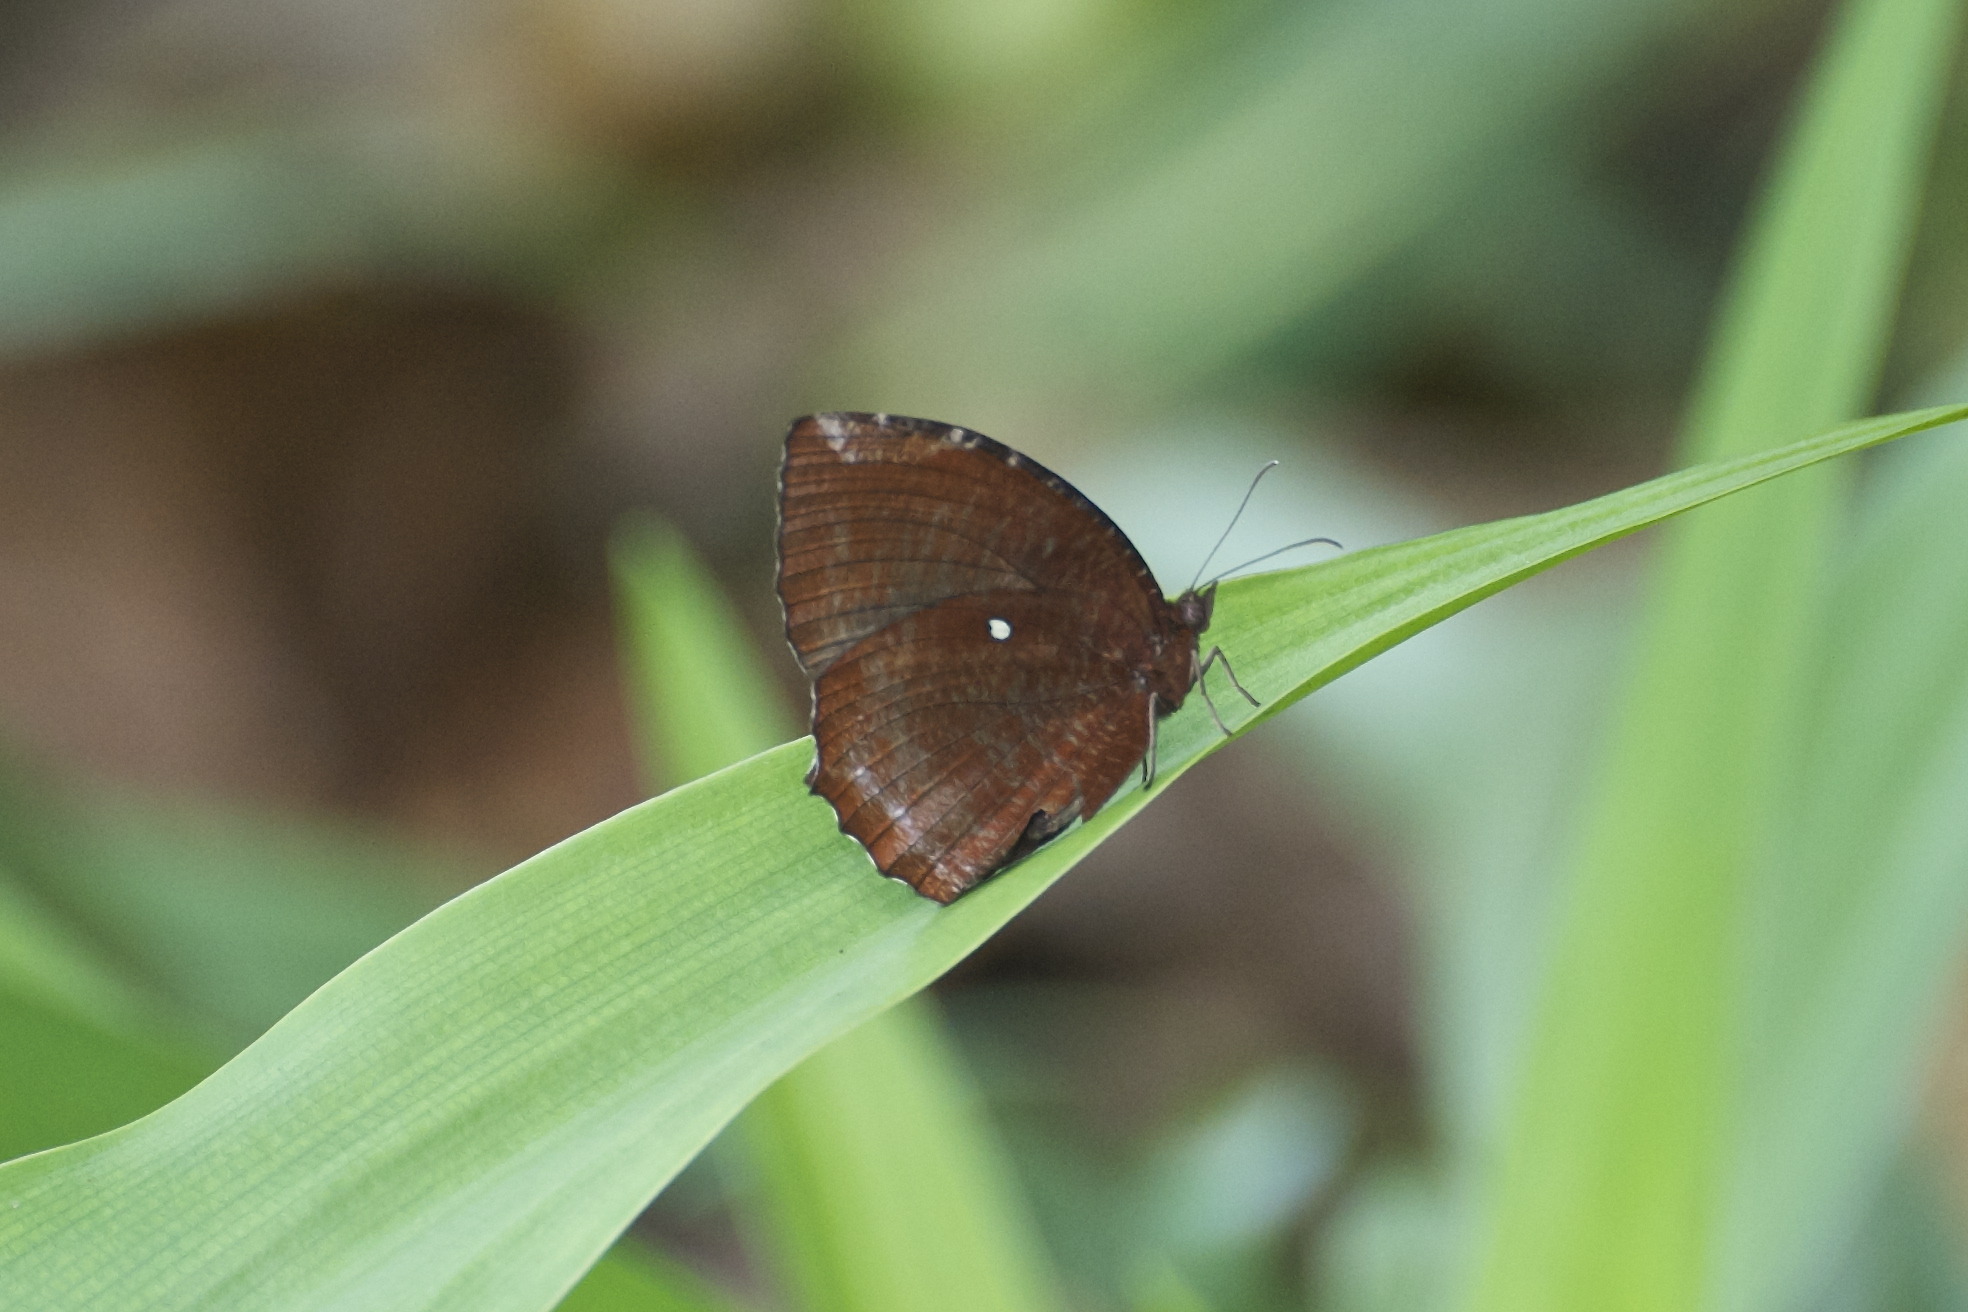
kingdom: Animalia
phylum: Arthropoda
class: Insecta
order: Lepidoptera
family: Nymphalidae
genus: Elymnias
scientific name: Elymnias hypermnestra
